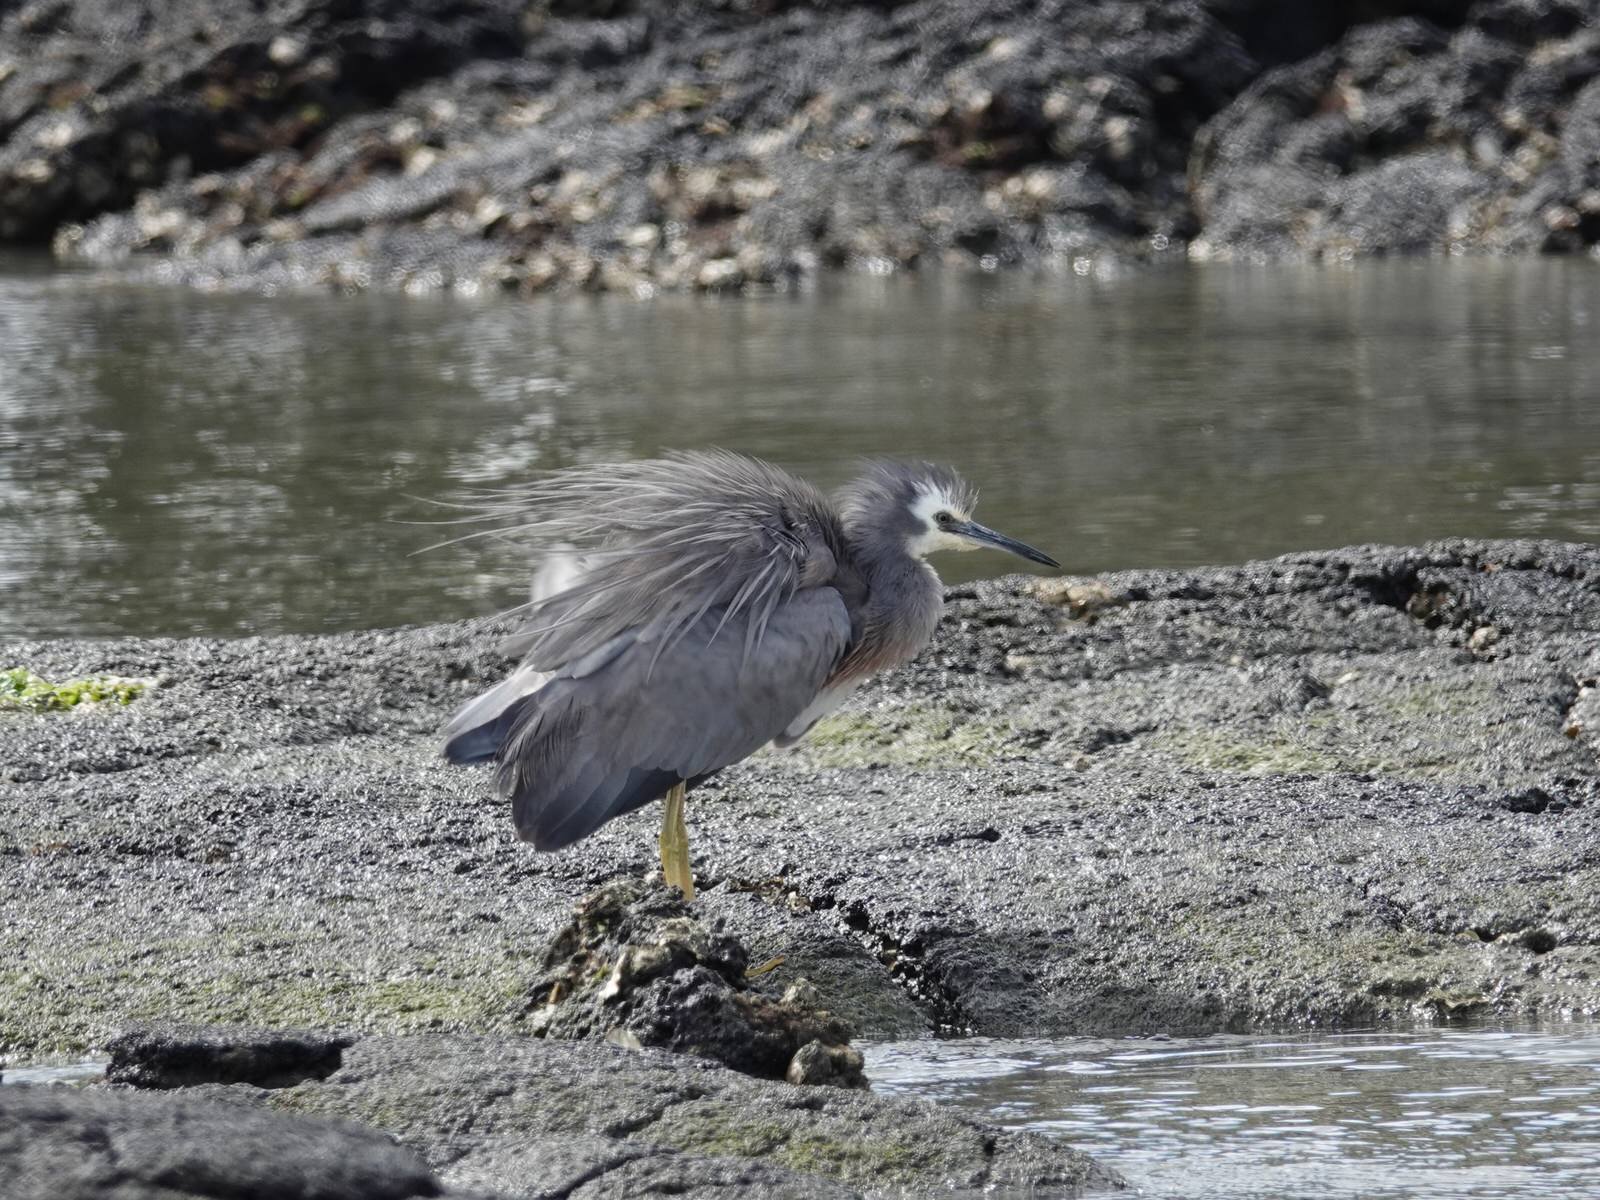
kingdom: Animalia
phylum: Chordata
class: Aves
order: Pelecaniformes
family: Ardeidae
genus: Egretta
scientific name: Egretta novaehollandiae
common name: White-faced heron
